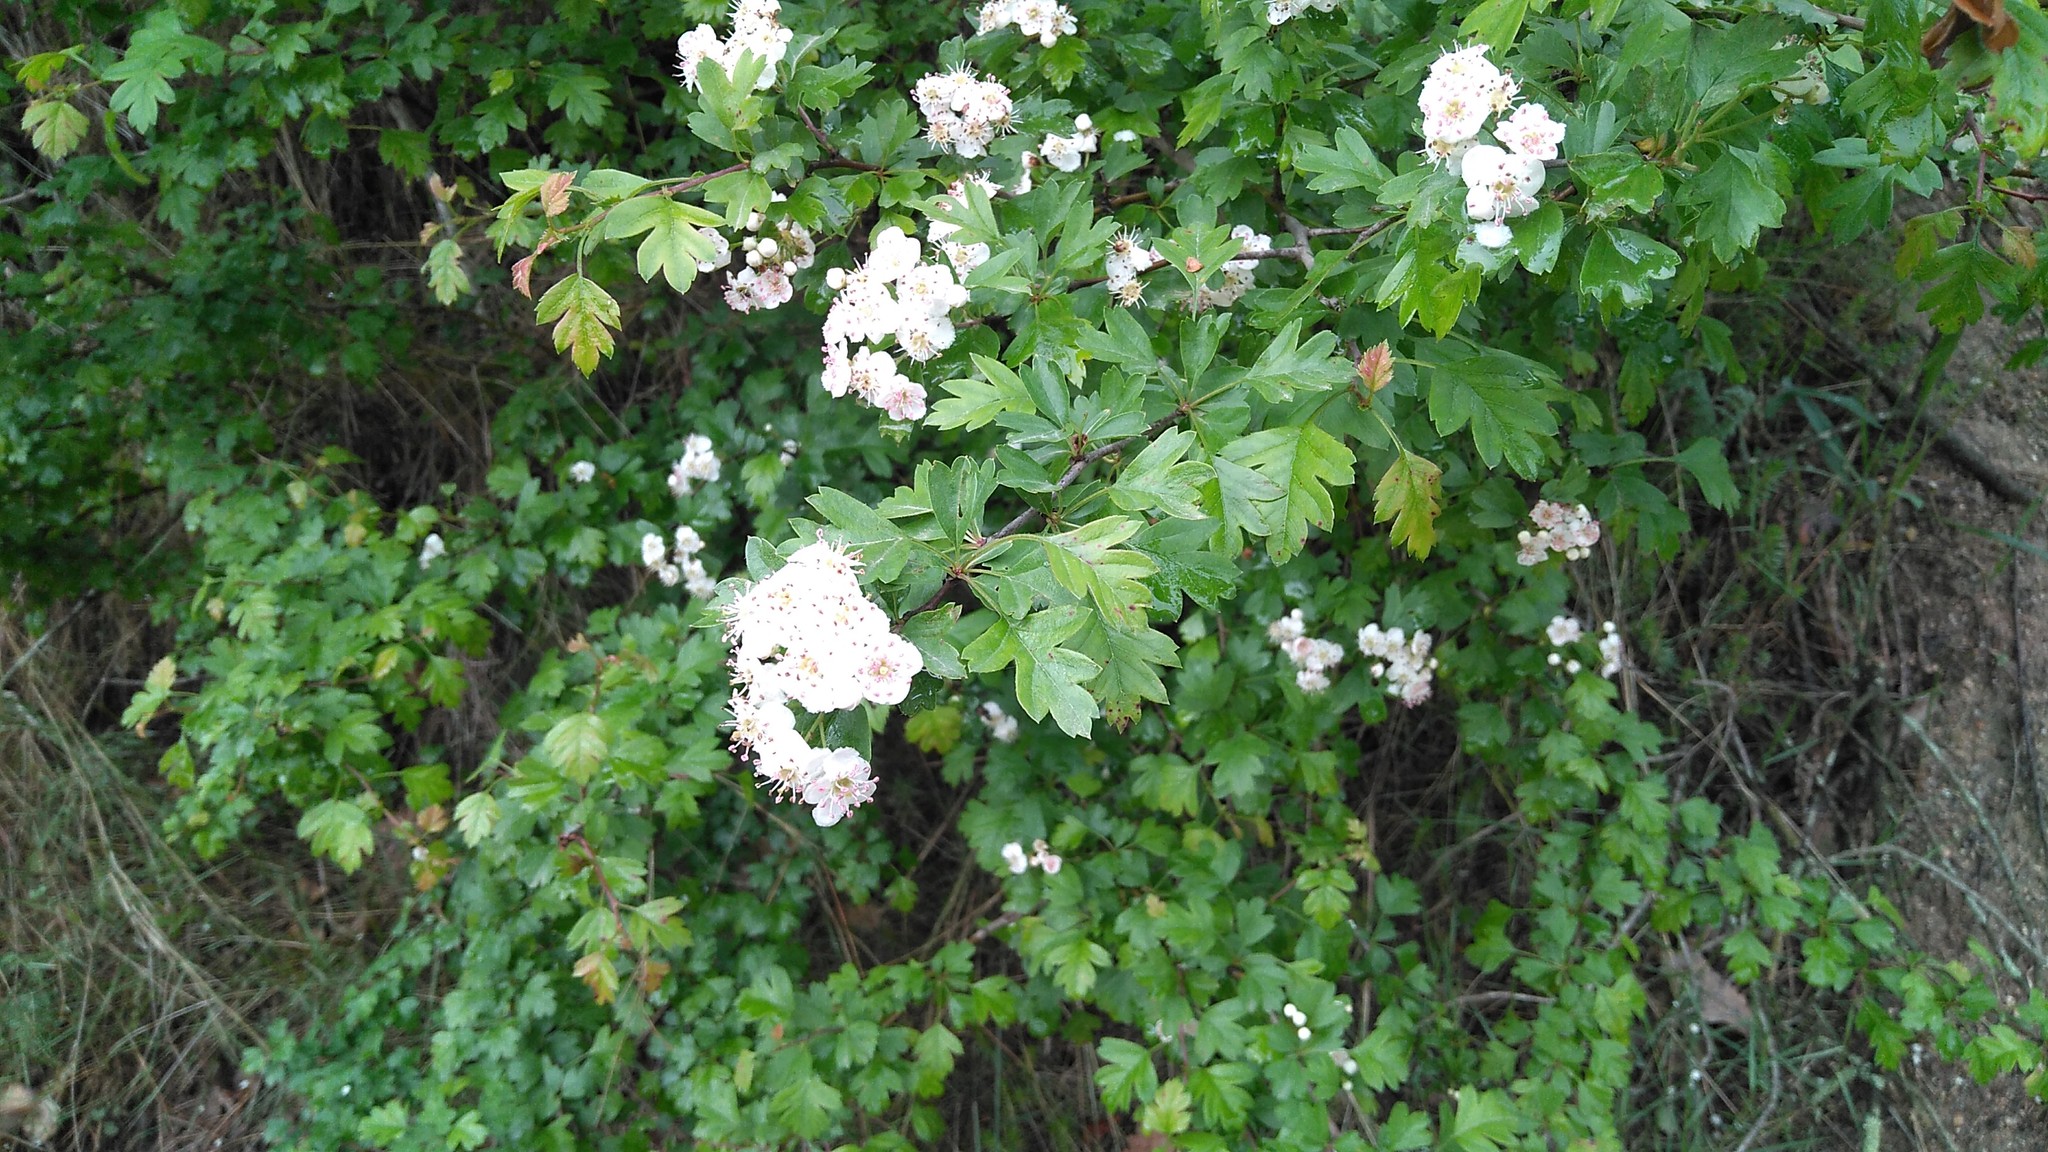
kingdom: Plantae
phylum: Tracheophyta
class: Magnoliopsida
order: Rosales
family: Rosaceae
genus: Crataegus
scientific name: Crataegus monogyna
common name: Hawthorn
